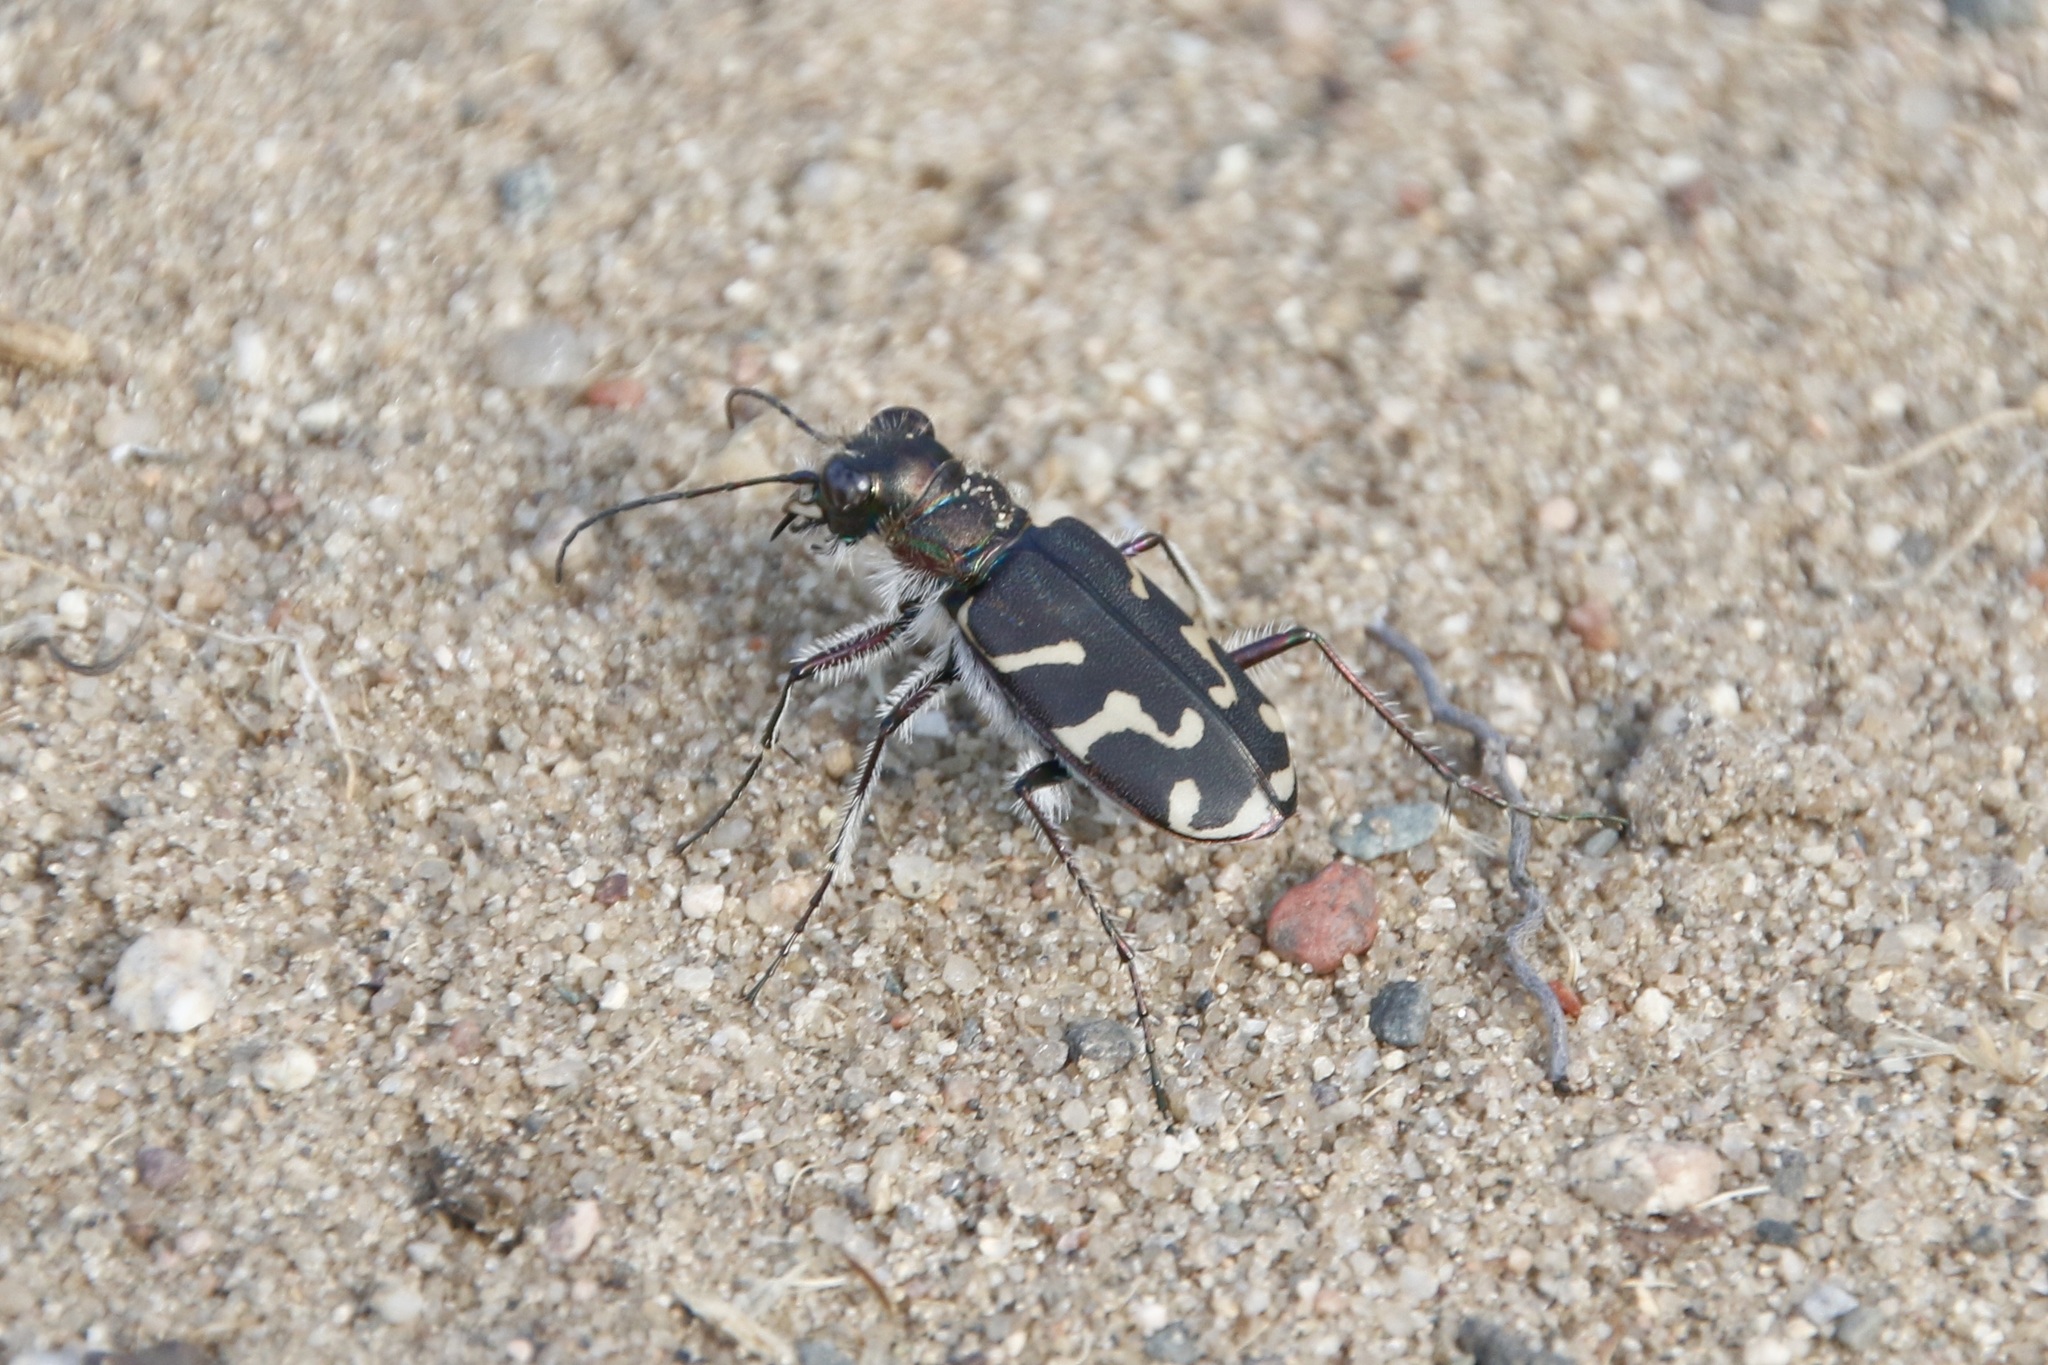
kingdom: Animalia
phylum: Arthropoda
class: Insecta
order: Coleoptera
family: Carabidae
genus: Cicindela
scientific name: Cicindela tranquebarica
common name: Oblique-lined tiger beetle
